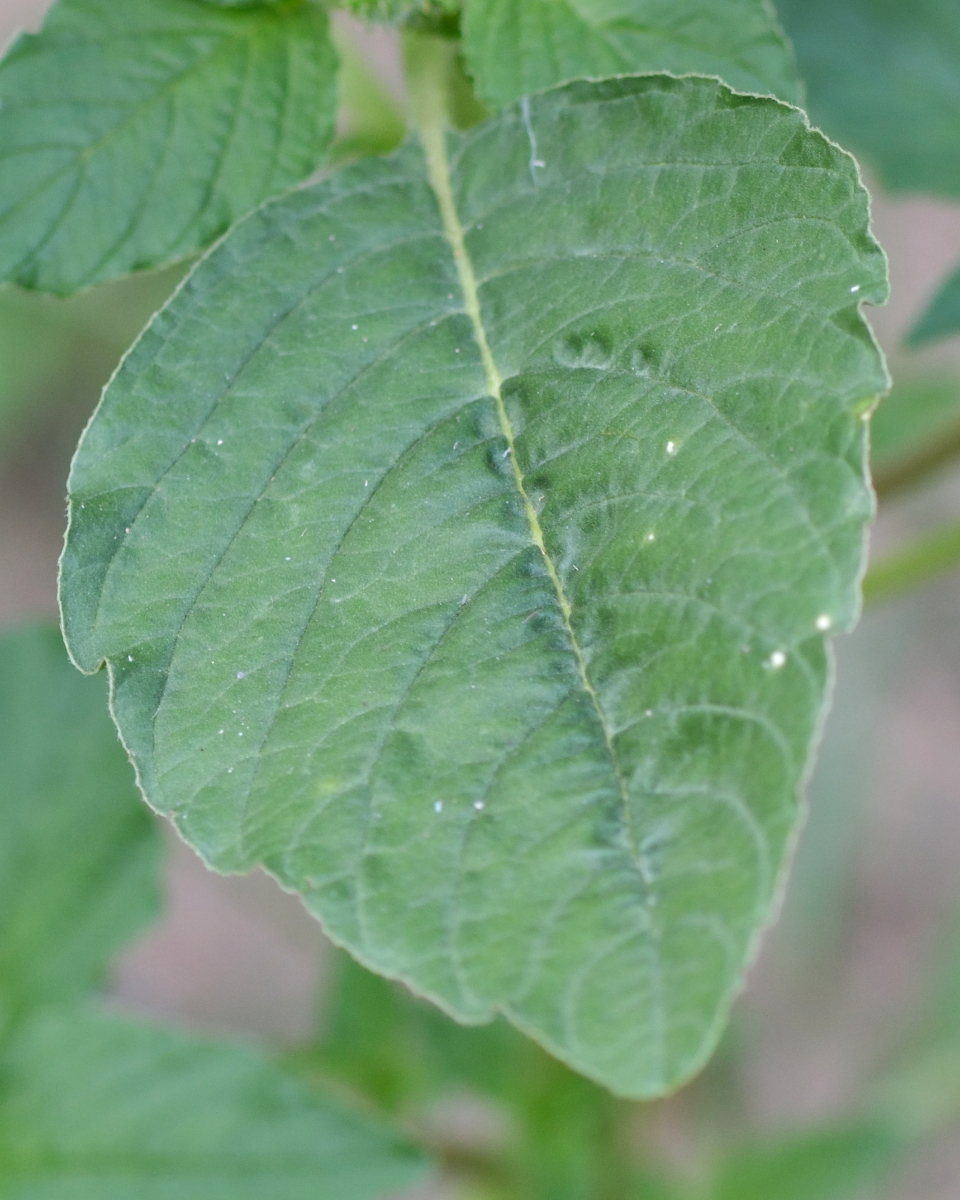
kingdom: Plantae
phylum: Tracheophyta
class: Magnoliopsida
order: Caryophyllales
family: Amaranthaceae
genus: Amaranthus
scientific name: Amaranthus retroflexus
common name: Redroot amaranth
